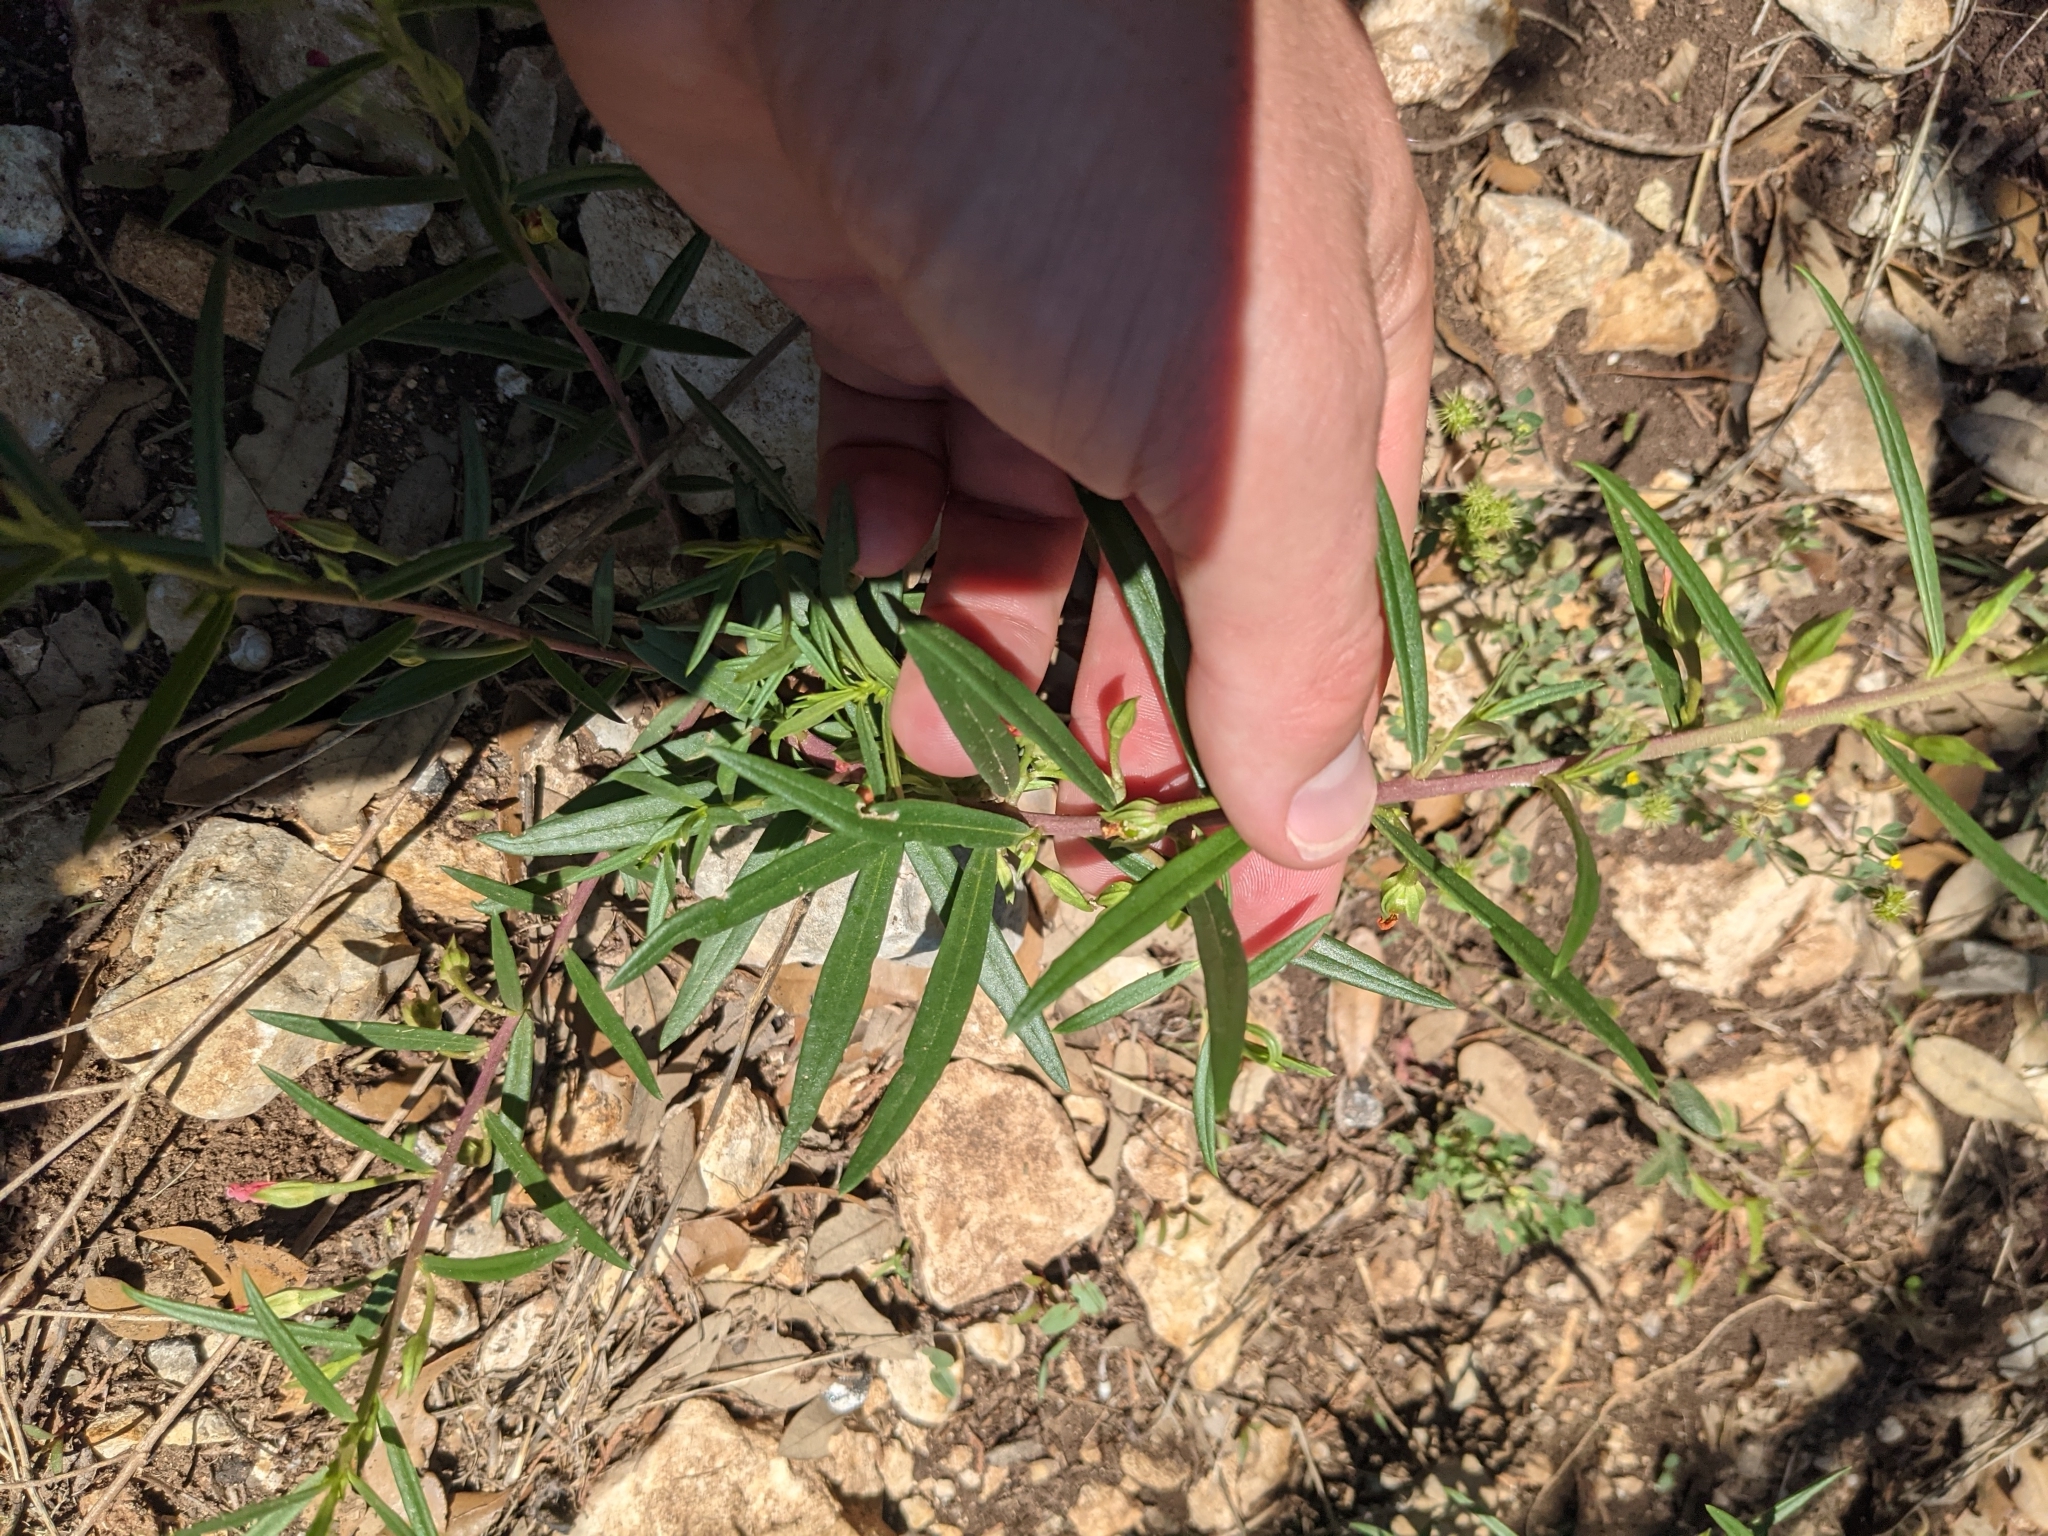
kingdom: Plantae
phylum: Tracheophyta
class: Magnoliopsida
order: Caryophyllales
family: Montiaceae
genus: Phemeranthus
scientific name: Phemeranthus aurantiacus
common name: Orange fameflower
